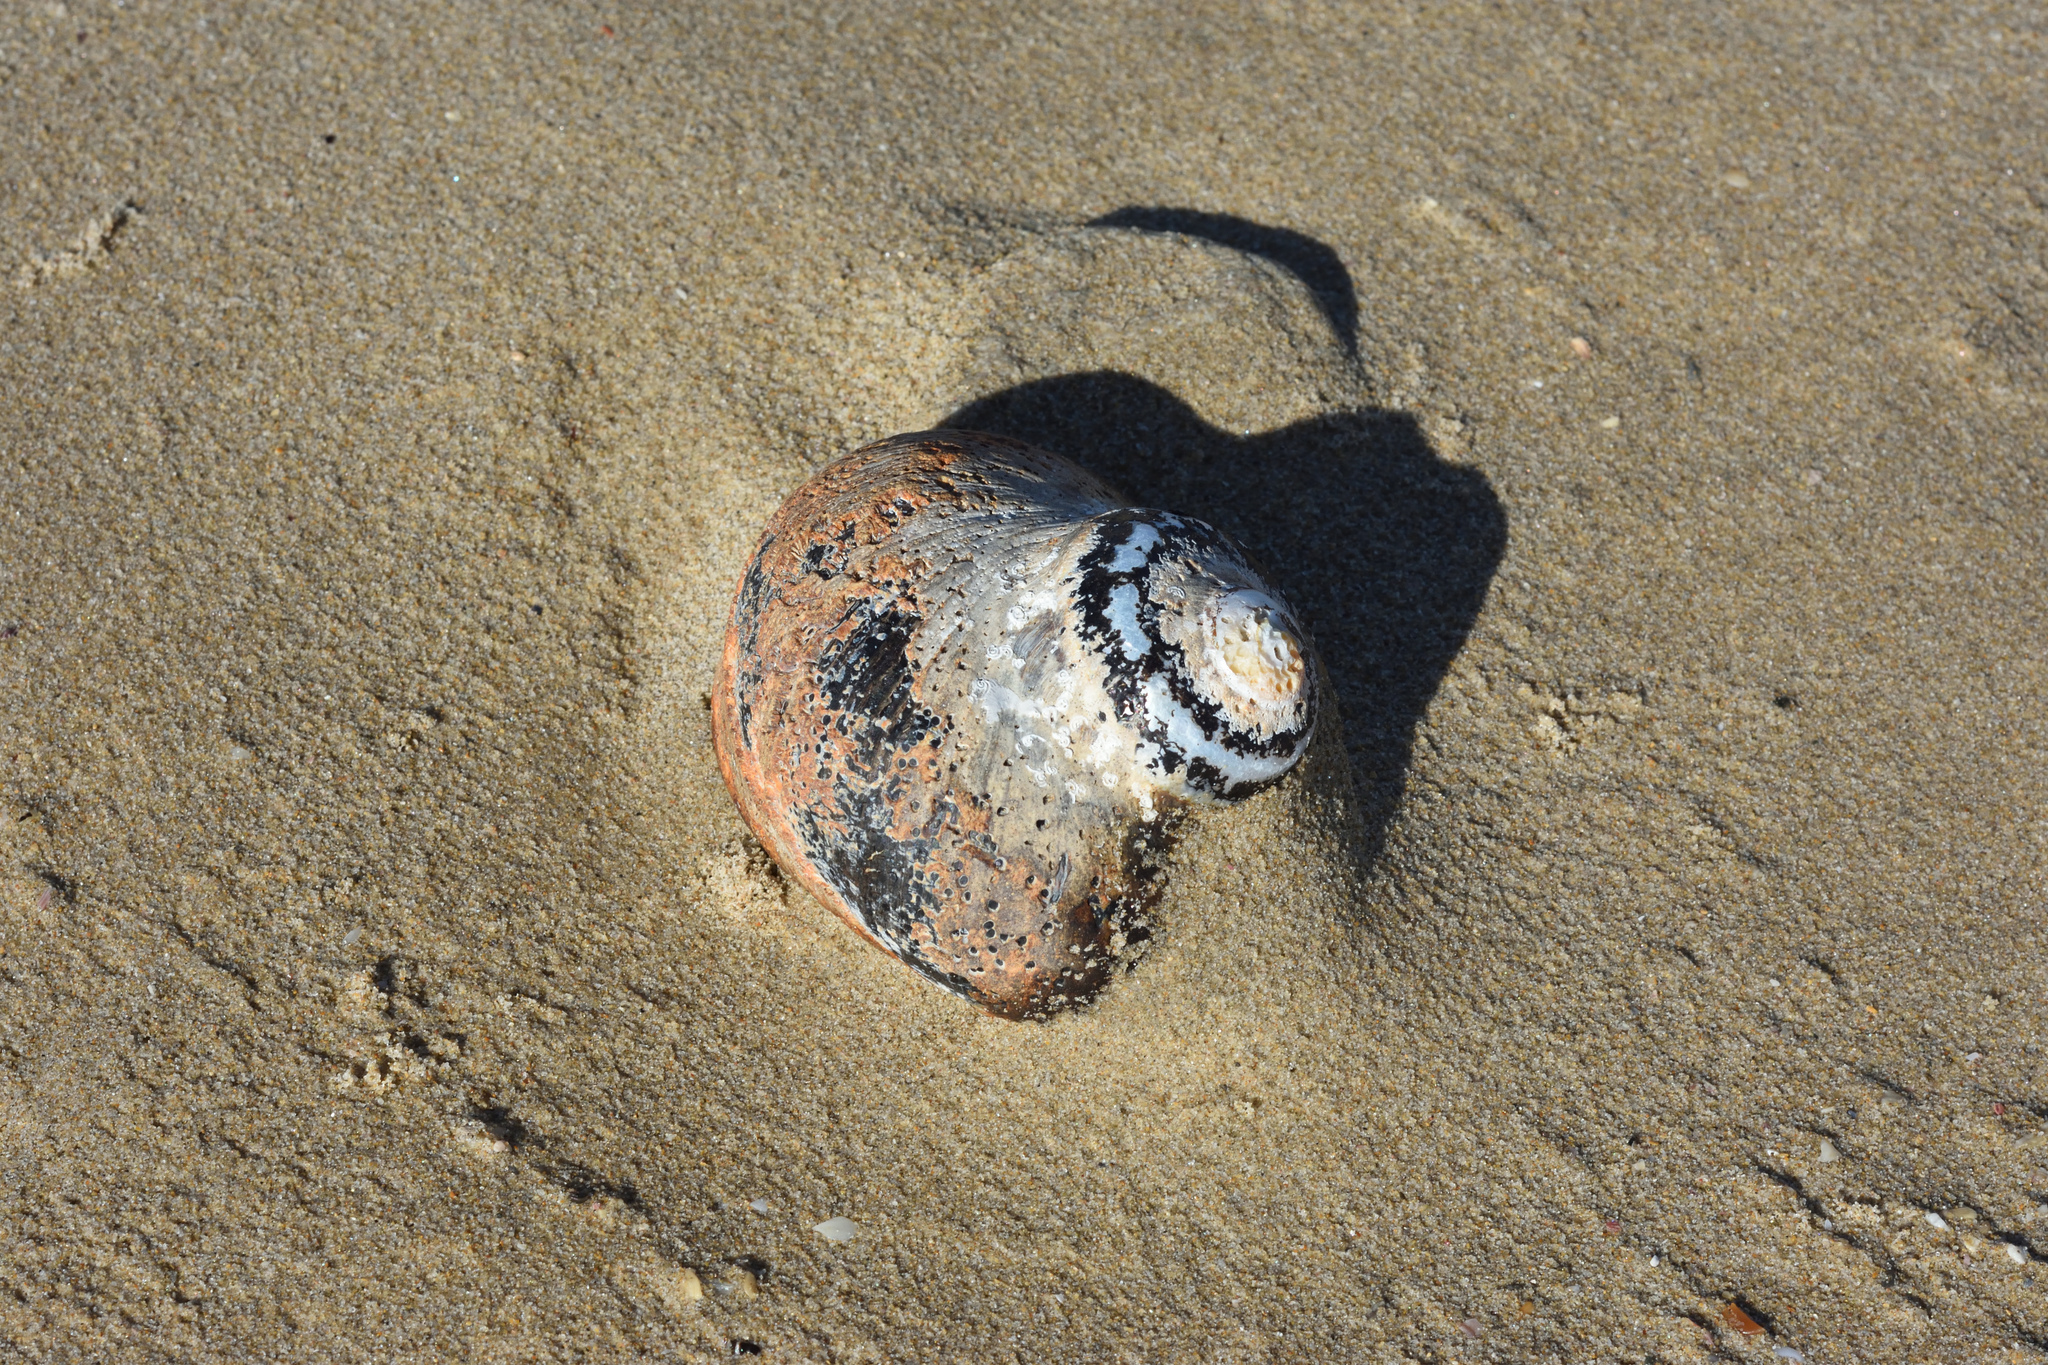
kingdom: Animalia
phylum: Mollusca
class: Gastropoda
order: Trochida
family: Turbinidae
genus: Turbo
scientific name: Turbo sarmaticus
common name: South african turban
